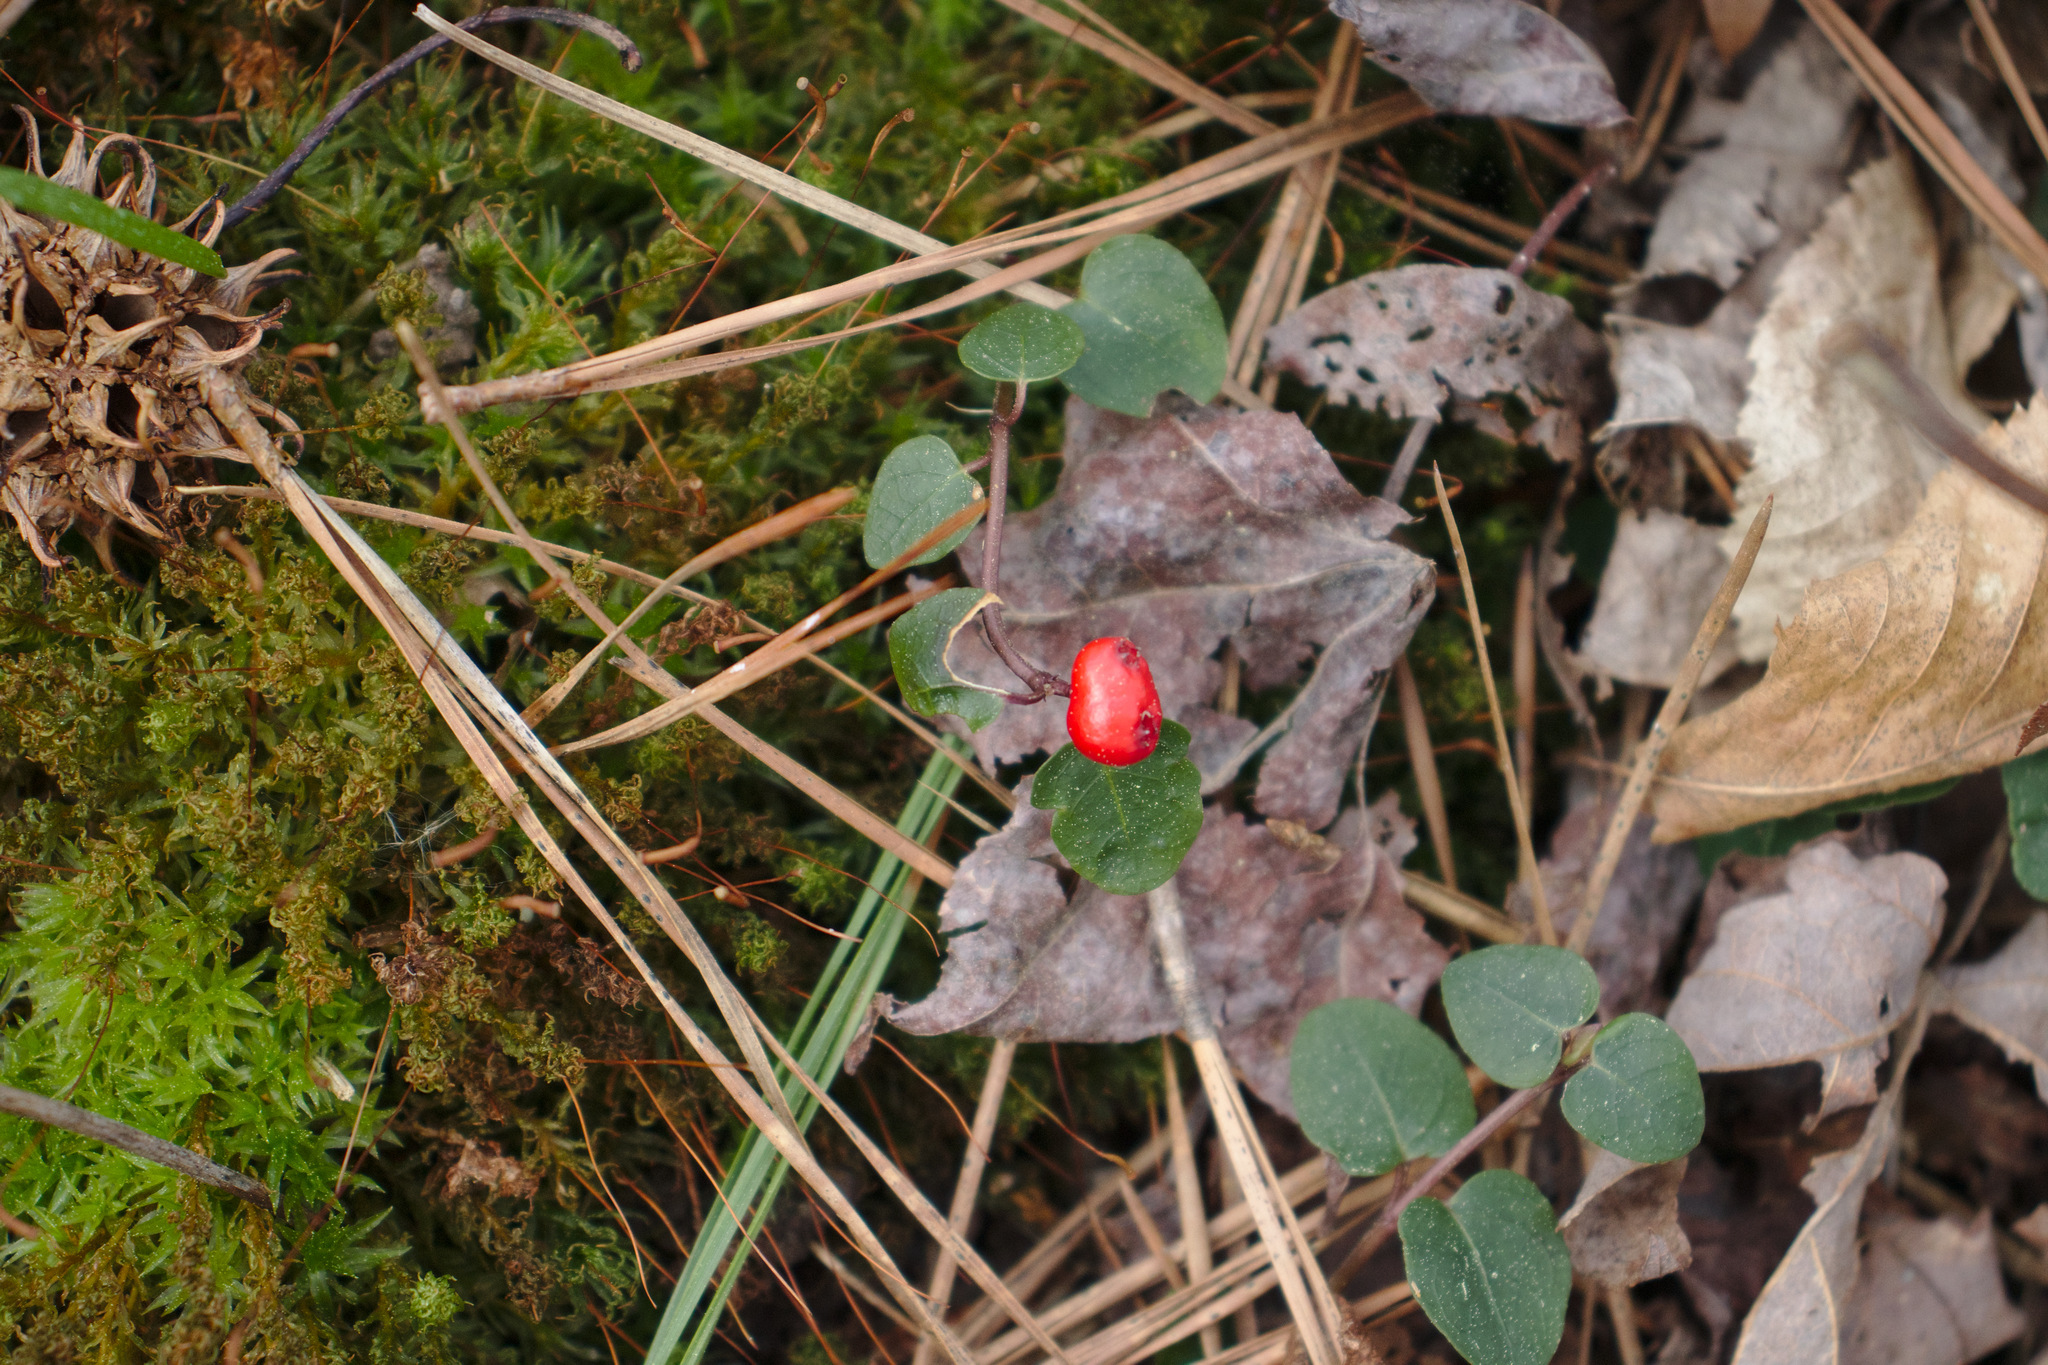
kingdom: Plantae
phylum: Tracheophyta
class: Magnoliopsida
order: Gentianales
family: Rubiaceae
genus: Mitchella
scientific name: Mitchella repens
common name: Partridge-berry
